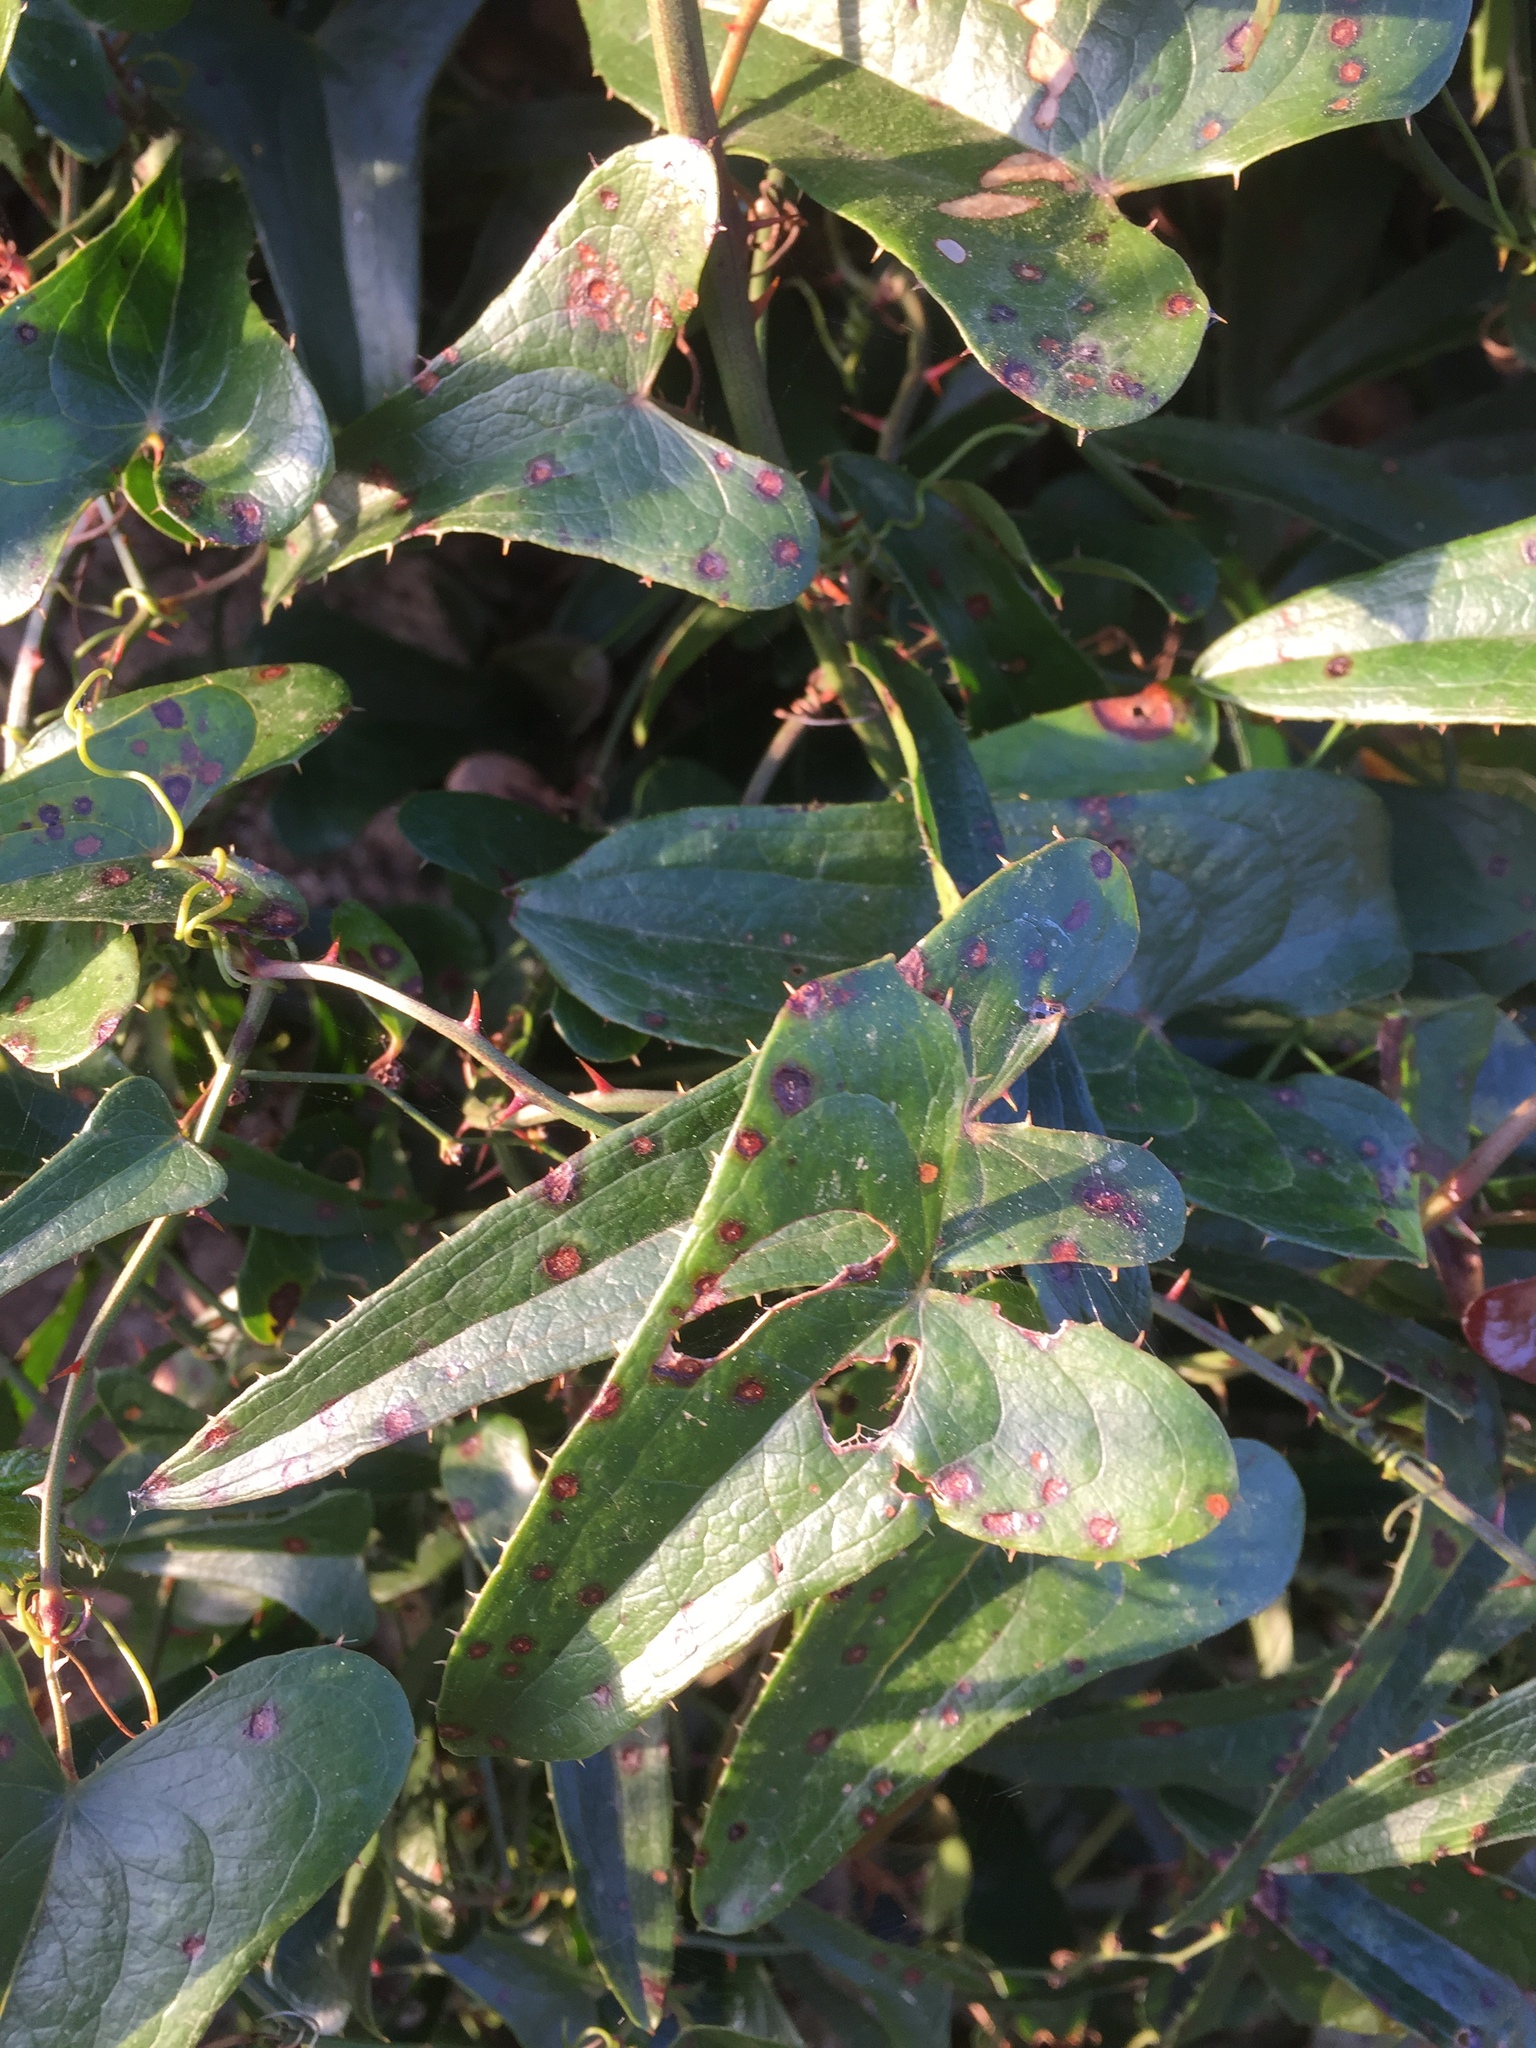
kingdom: Plantae
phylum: Tracheophyta
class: Liliopsida
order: Liliales
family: Smilacaceae
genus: Smilax
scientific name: Smilax aspera
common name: Common smilax
